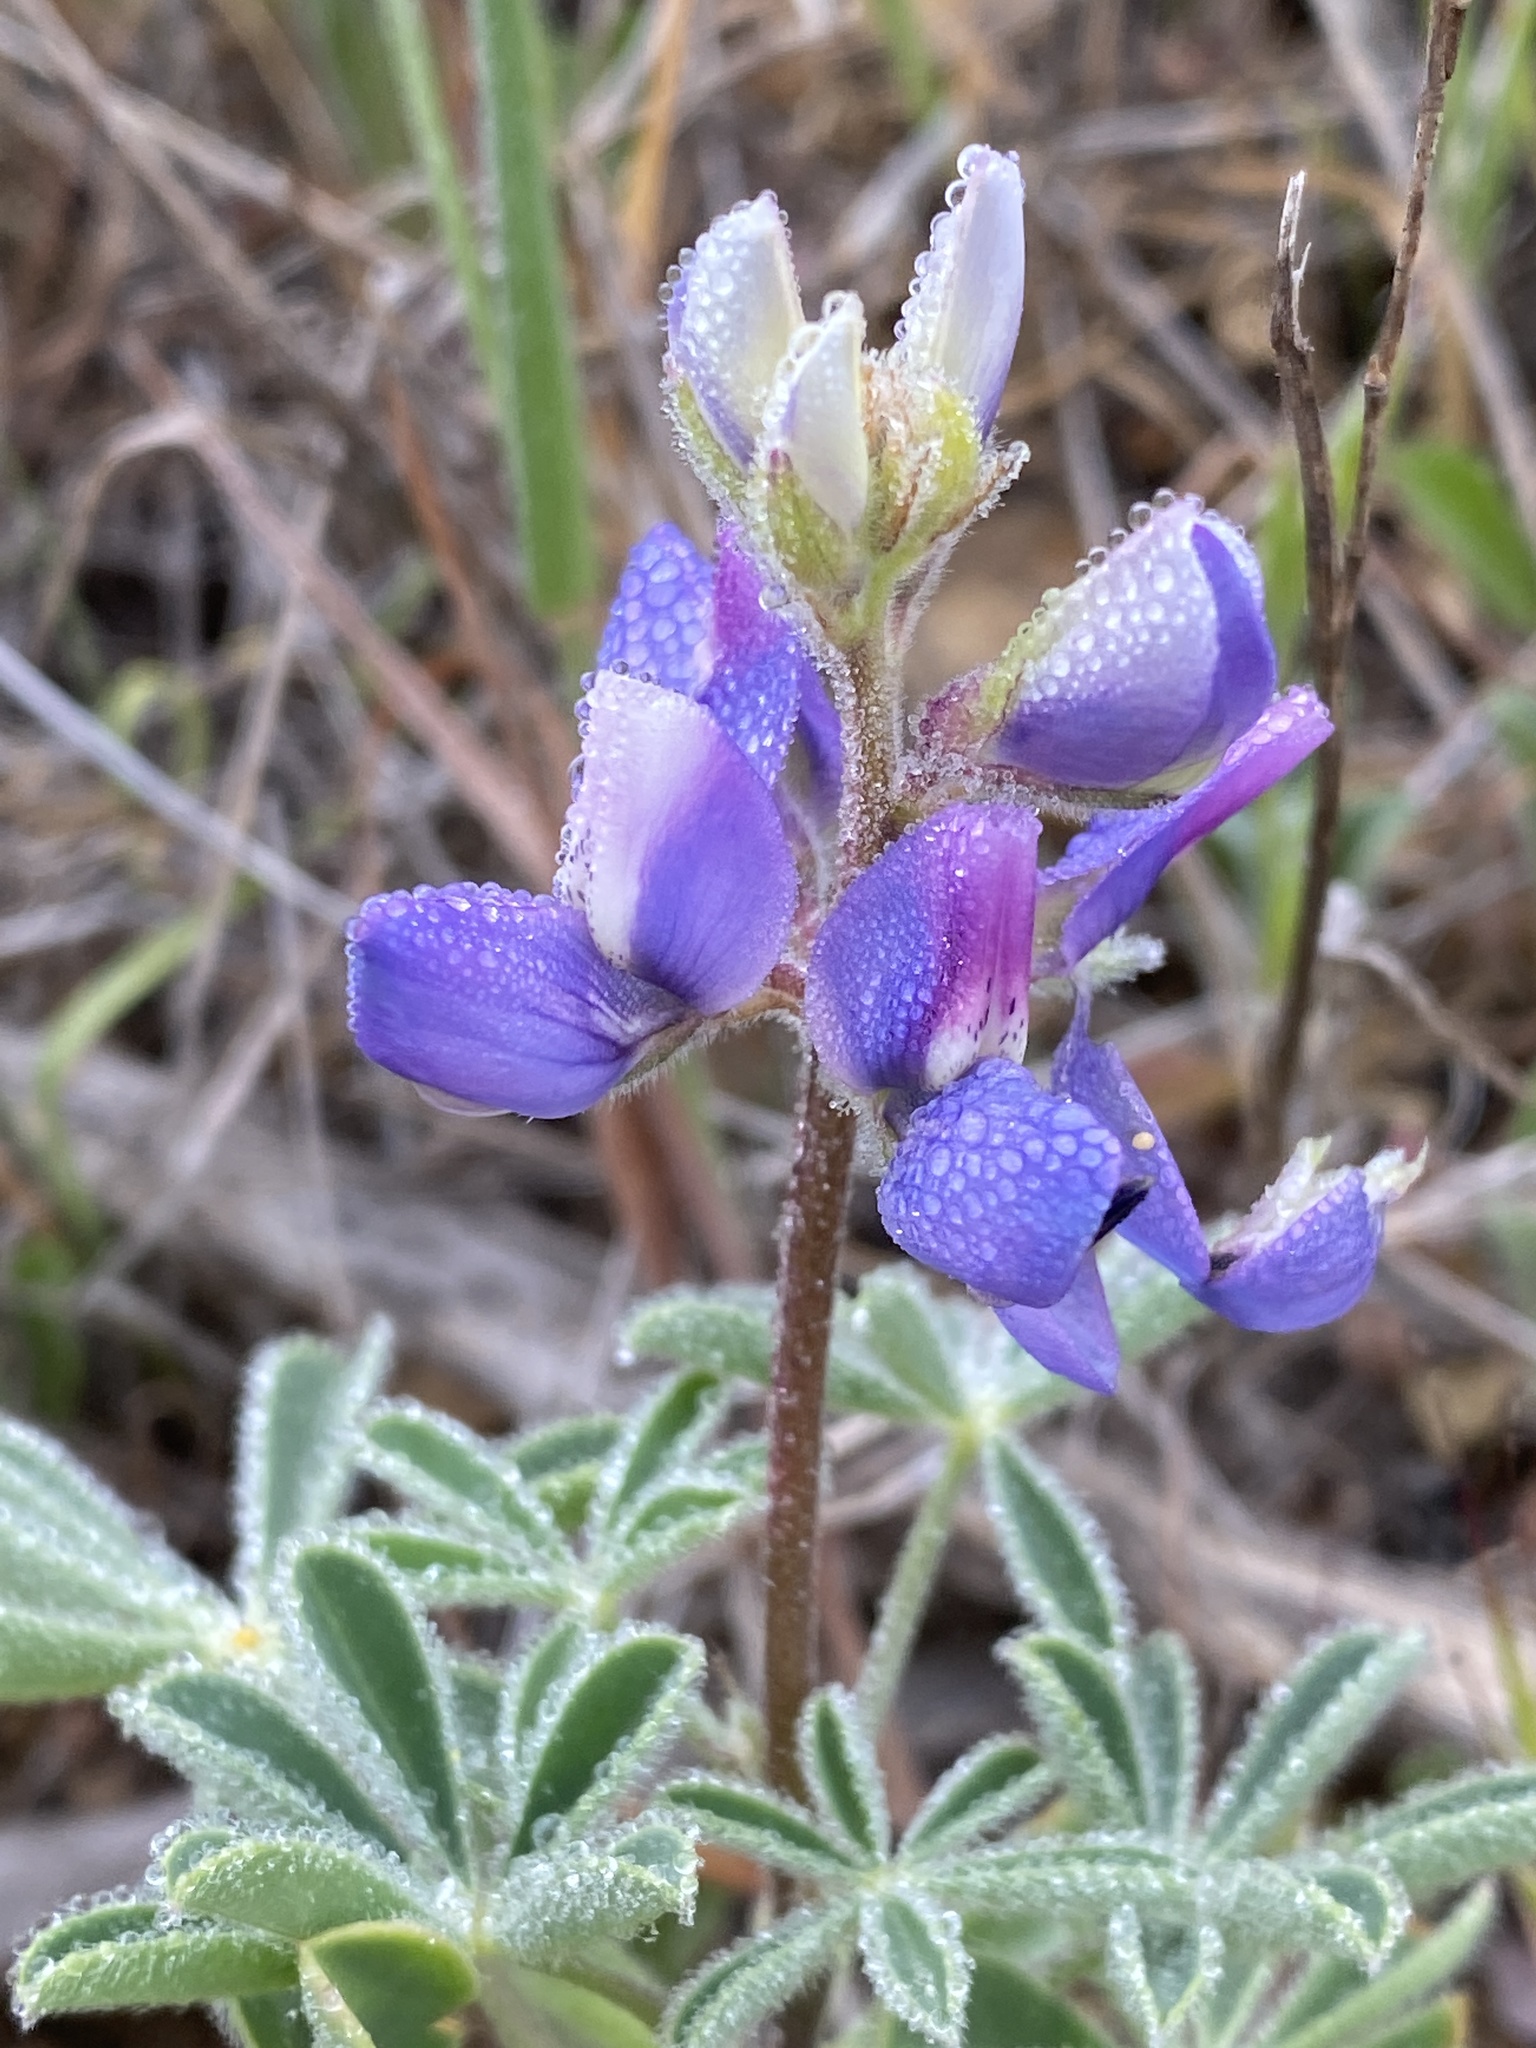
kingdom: Plantae
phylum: Tracheophyta
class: Magnoliopsida
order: Fabales
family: Fabaceae
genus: Lupinus
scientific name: Lupinus succulentus
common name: Arroyo lupine
